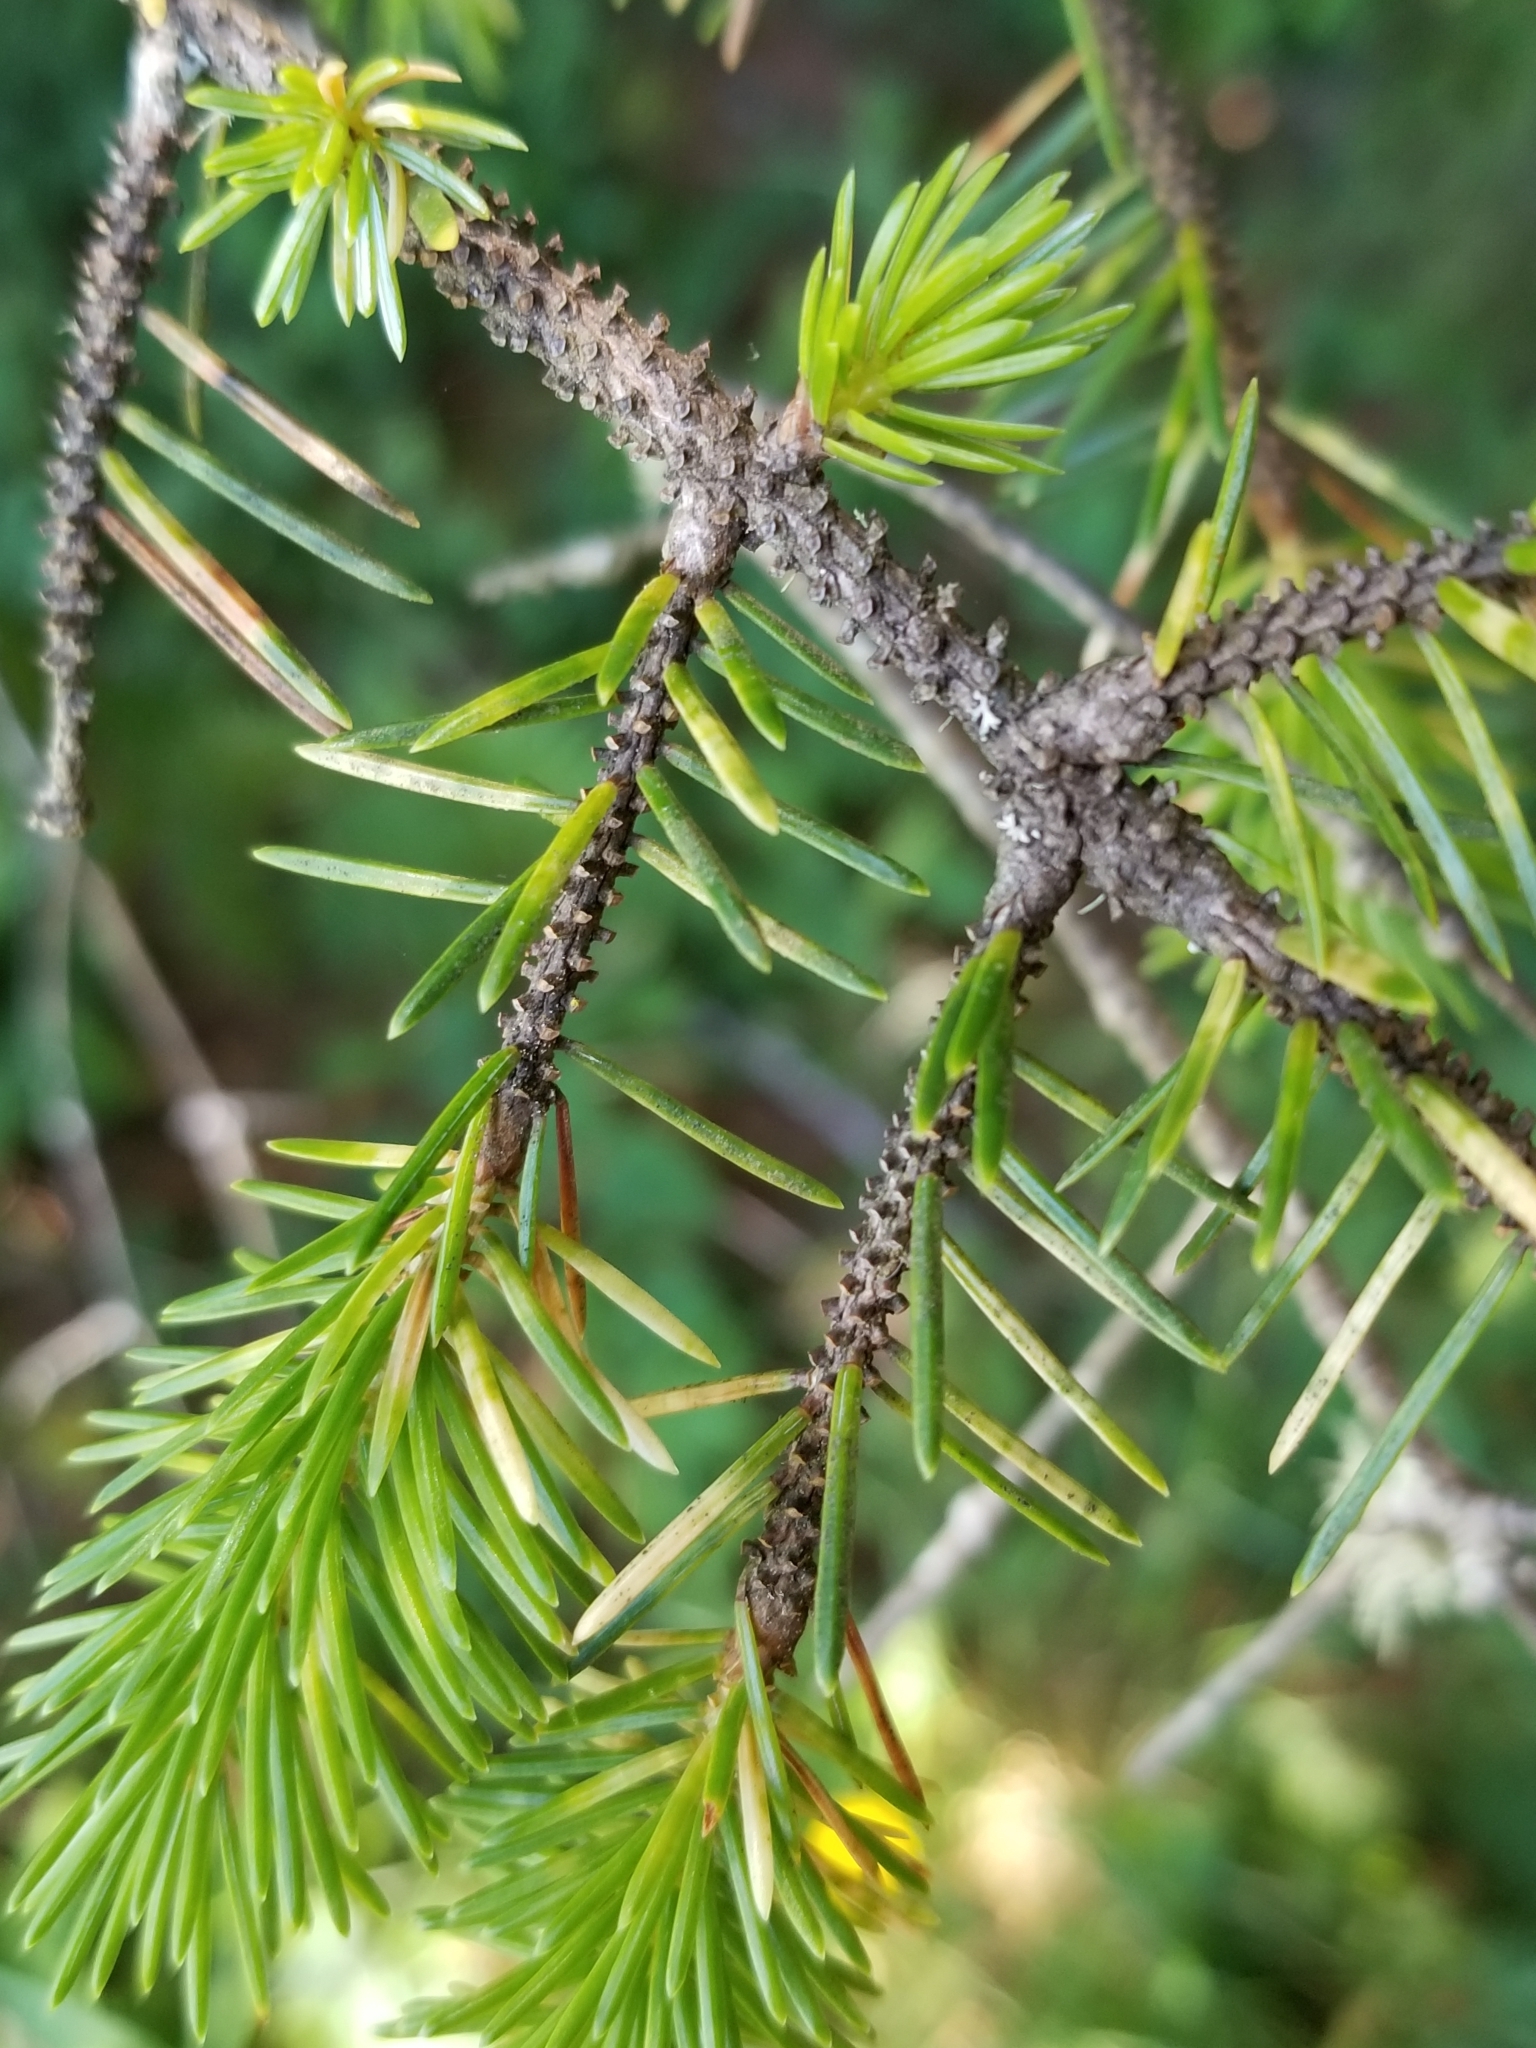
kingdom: Plantae
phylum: Tracheophyta
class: Pinopsida
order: Pinales
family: Pinaceae
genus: Picea
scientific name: Picea sitchensis
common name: Sitka spruce
